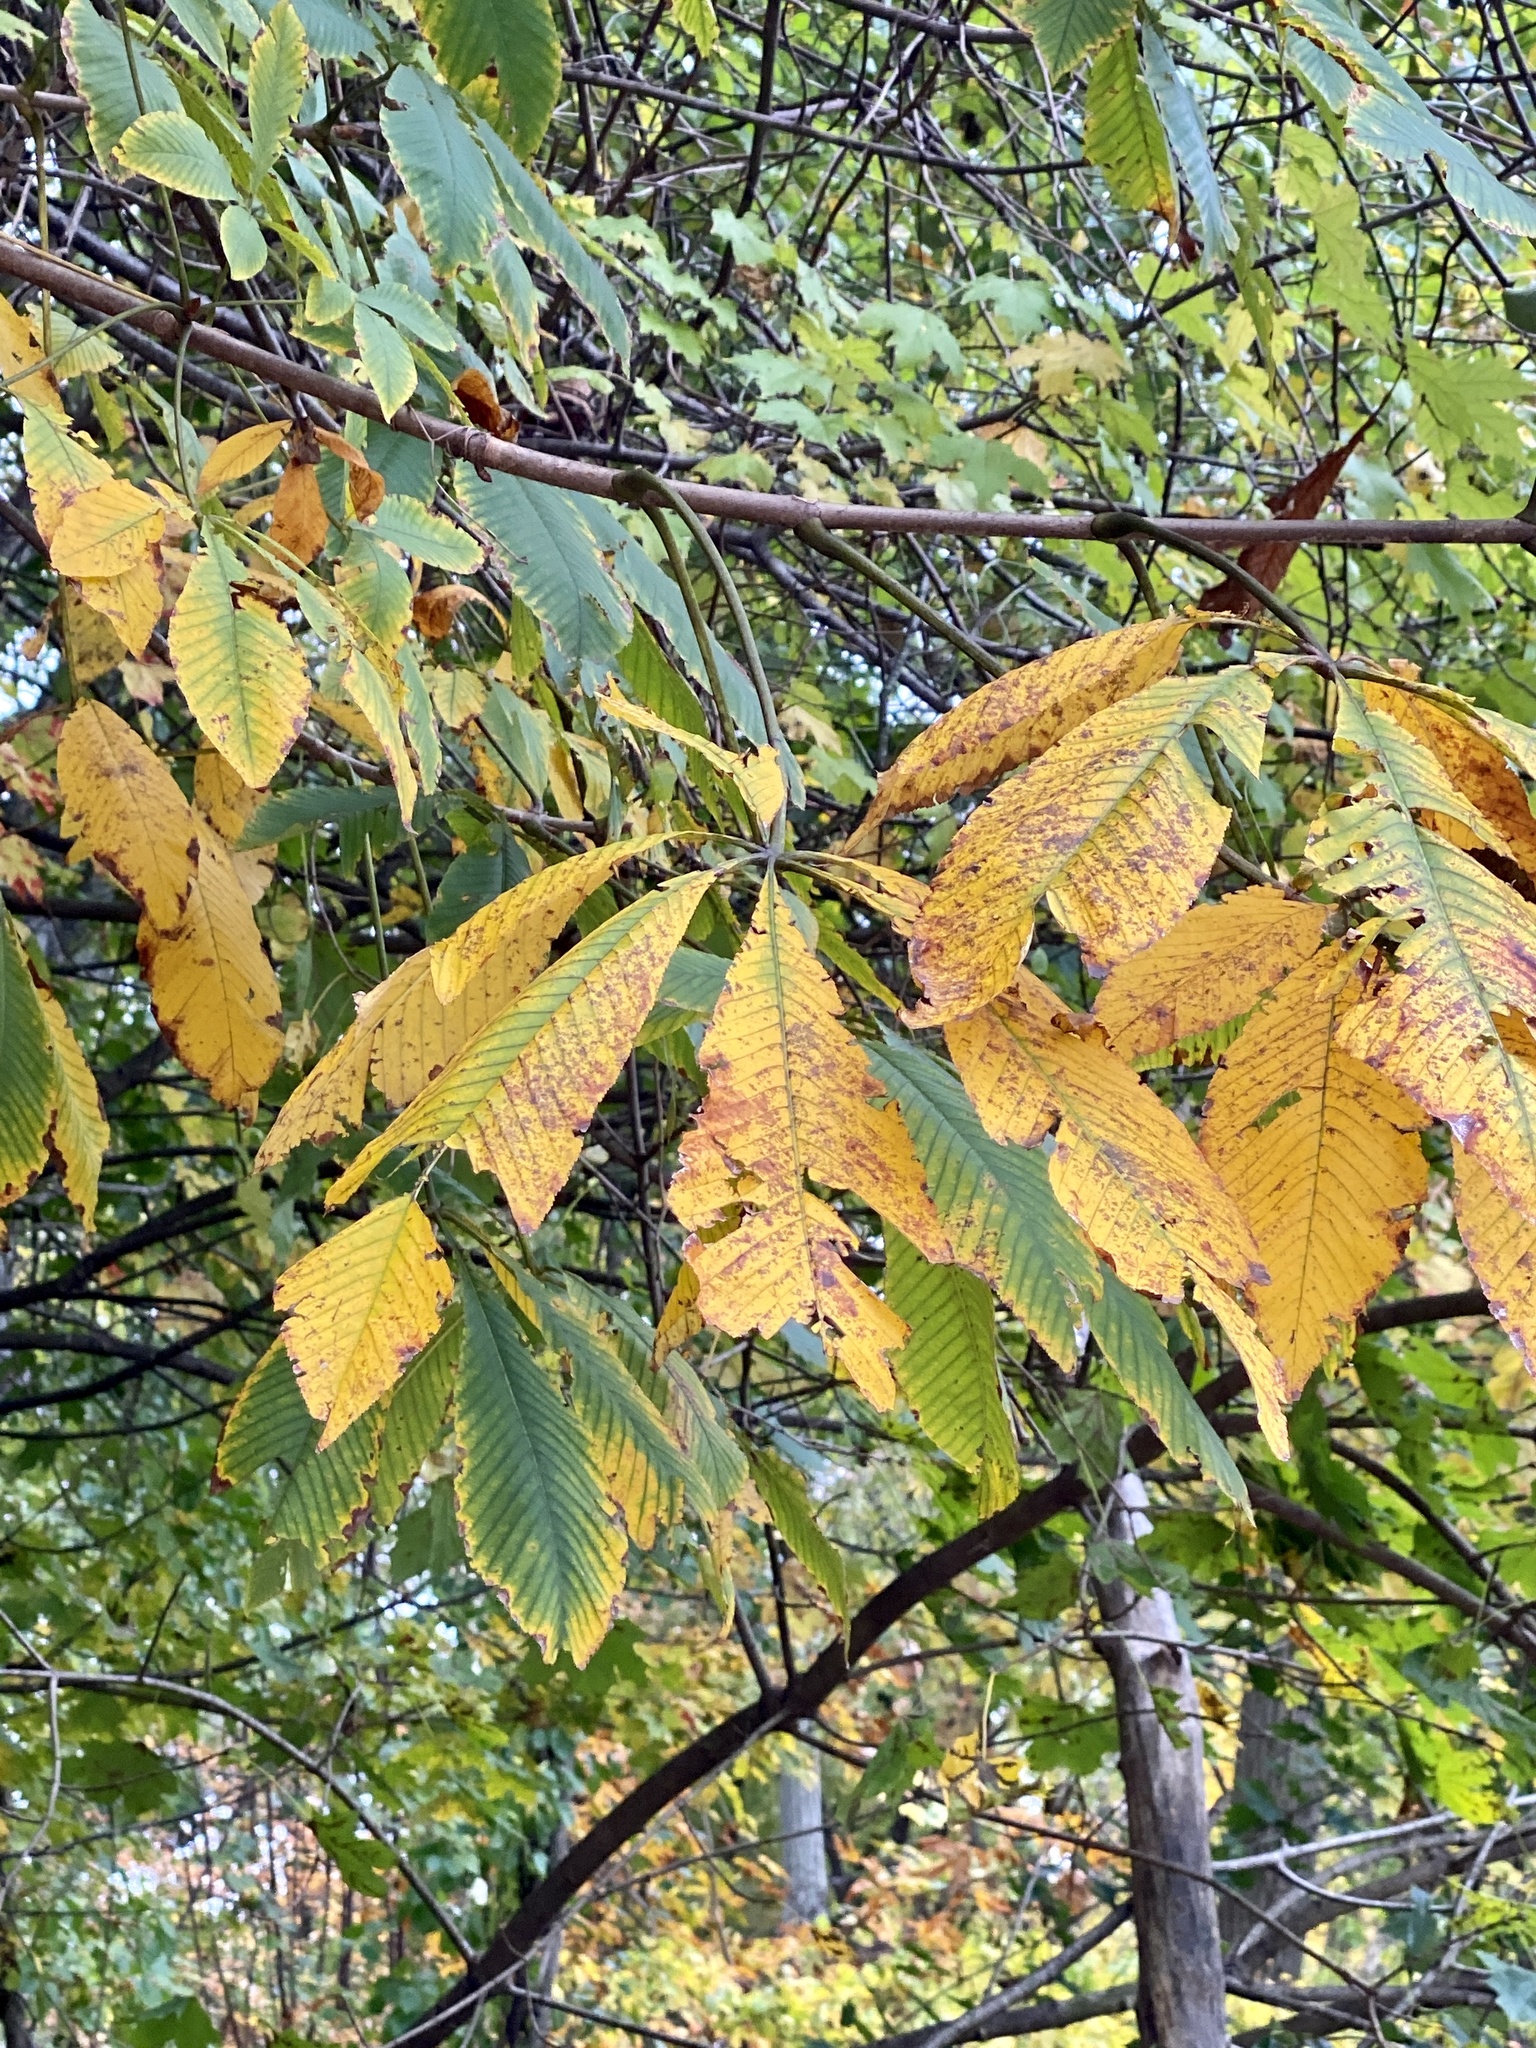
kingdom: Plantae
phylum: Tracheophyta
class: Magnoliopsida
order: Sapindales
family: Sapindaceae
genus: Aesculus
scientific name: Aesculus flava
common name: Yellow buckeye
